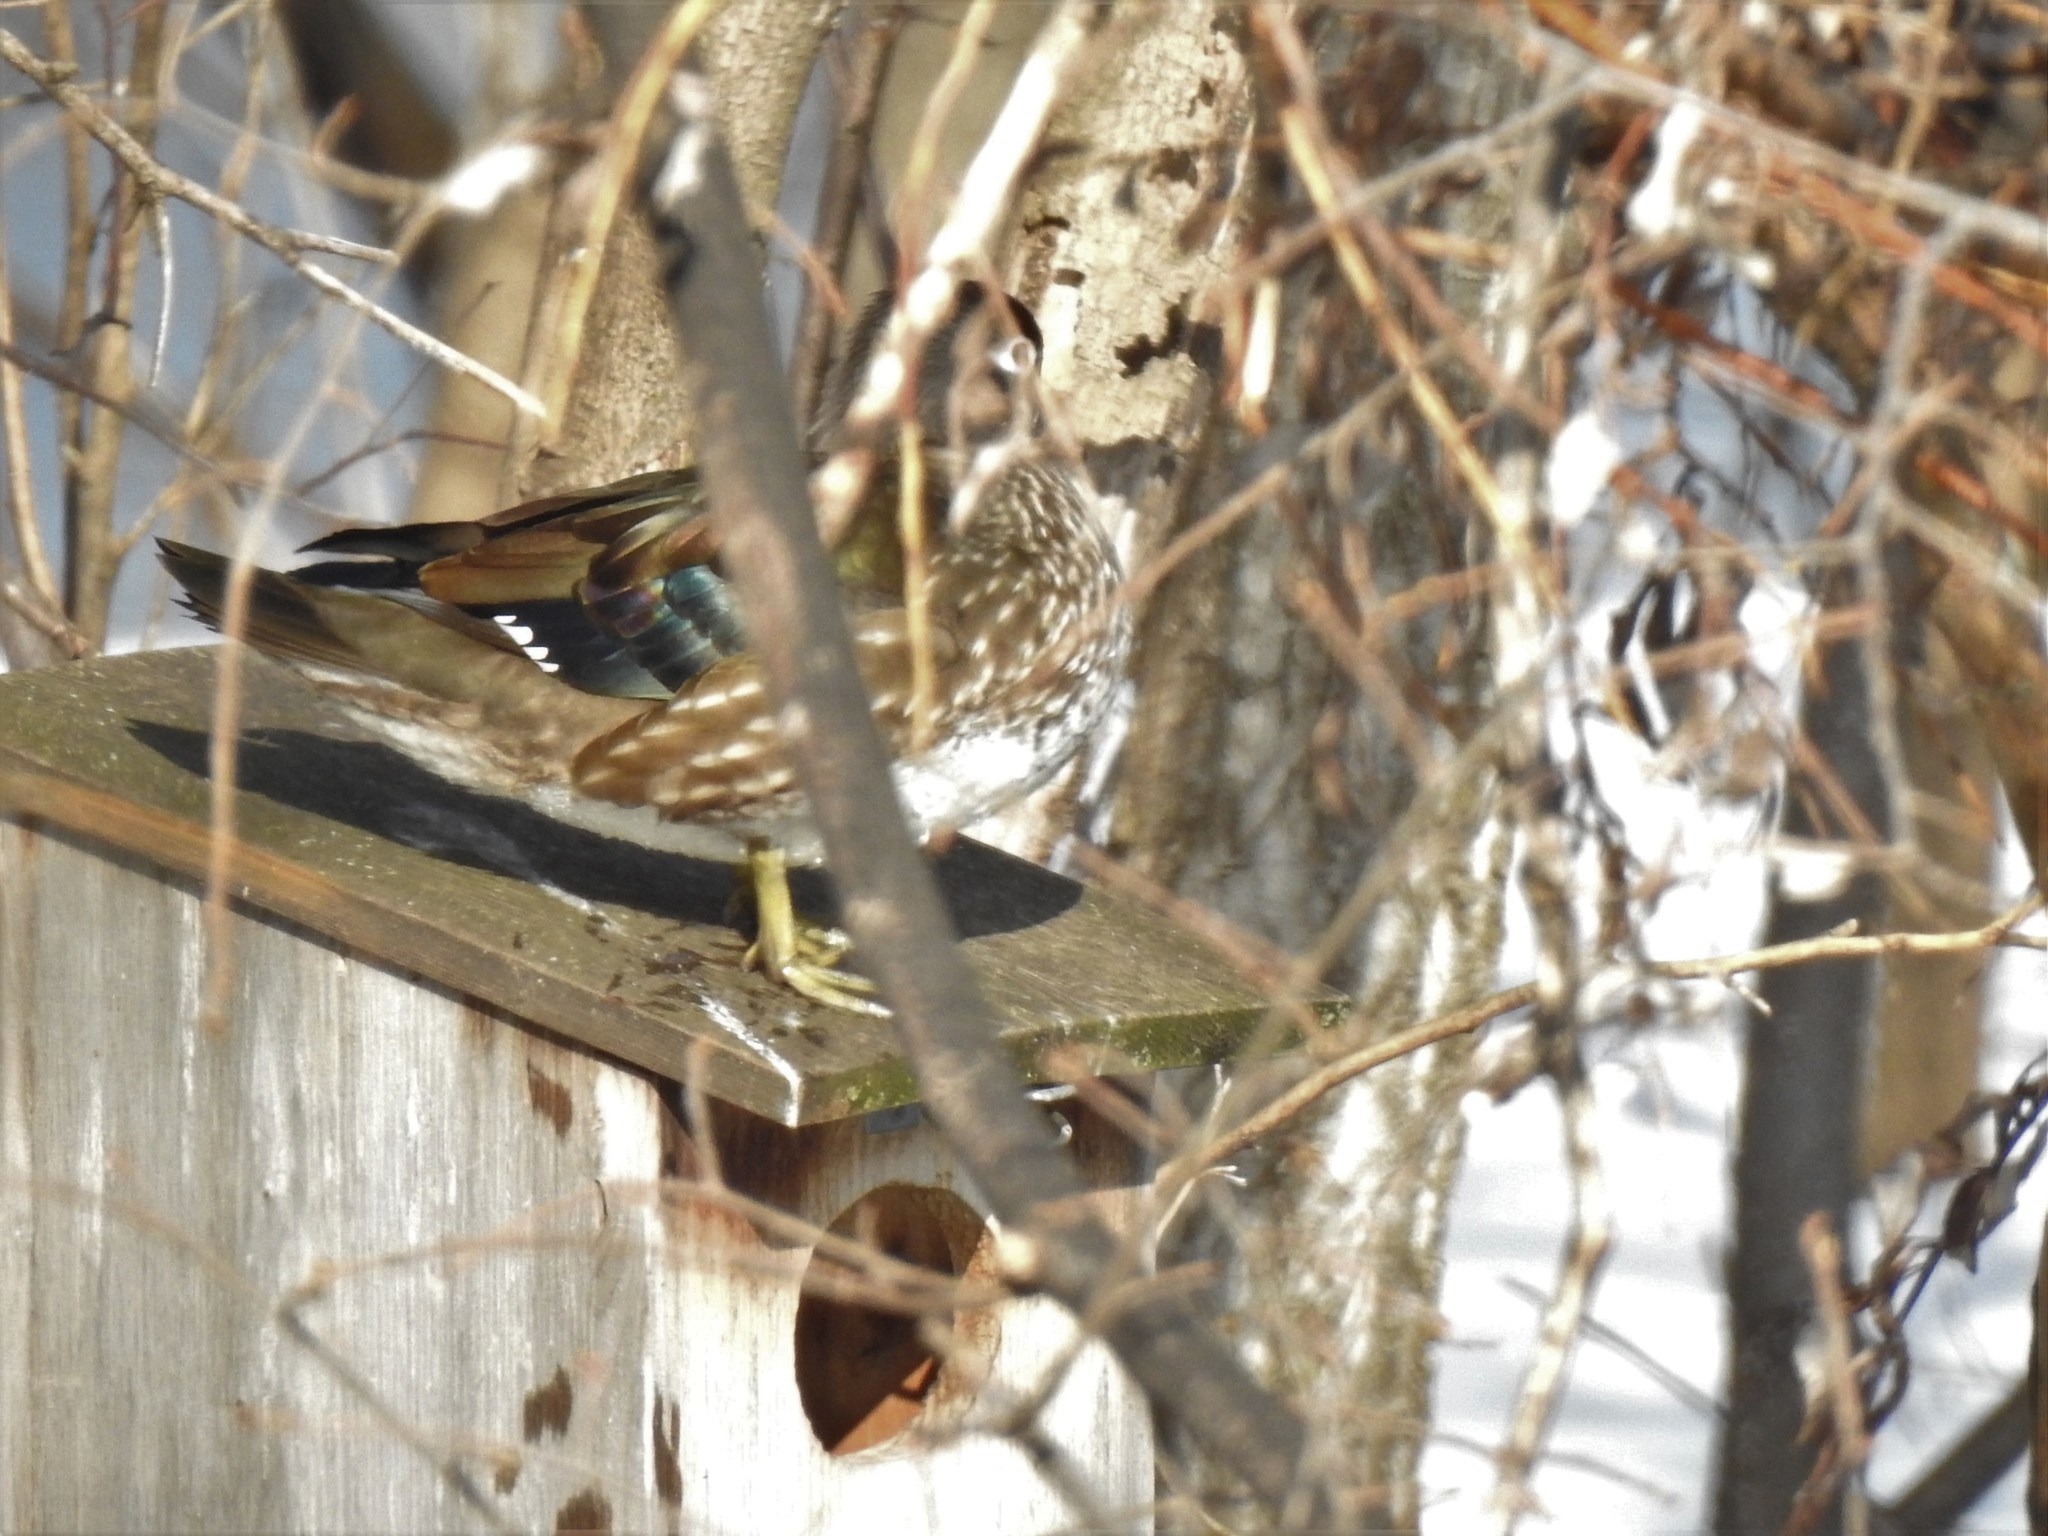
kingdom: Animalia
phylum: Chordata
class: Aves
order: Anseriformes
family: Anatidae
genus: Aix
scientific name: Aix sponsa
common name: Wood duck
